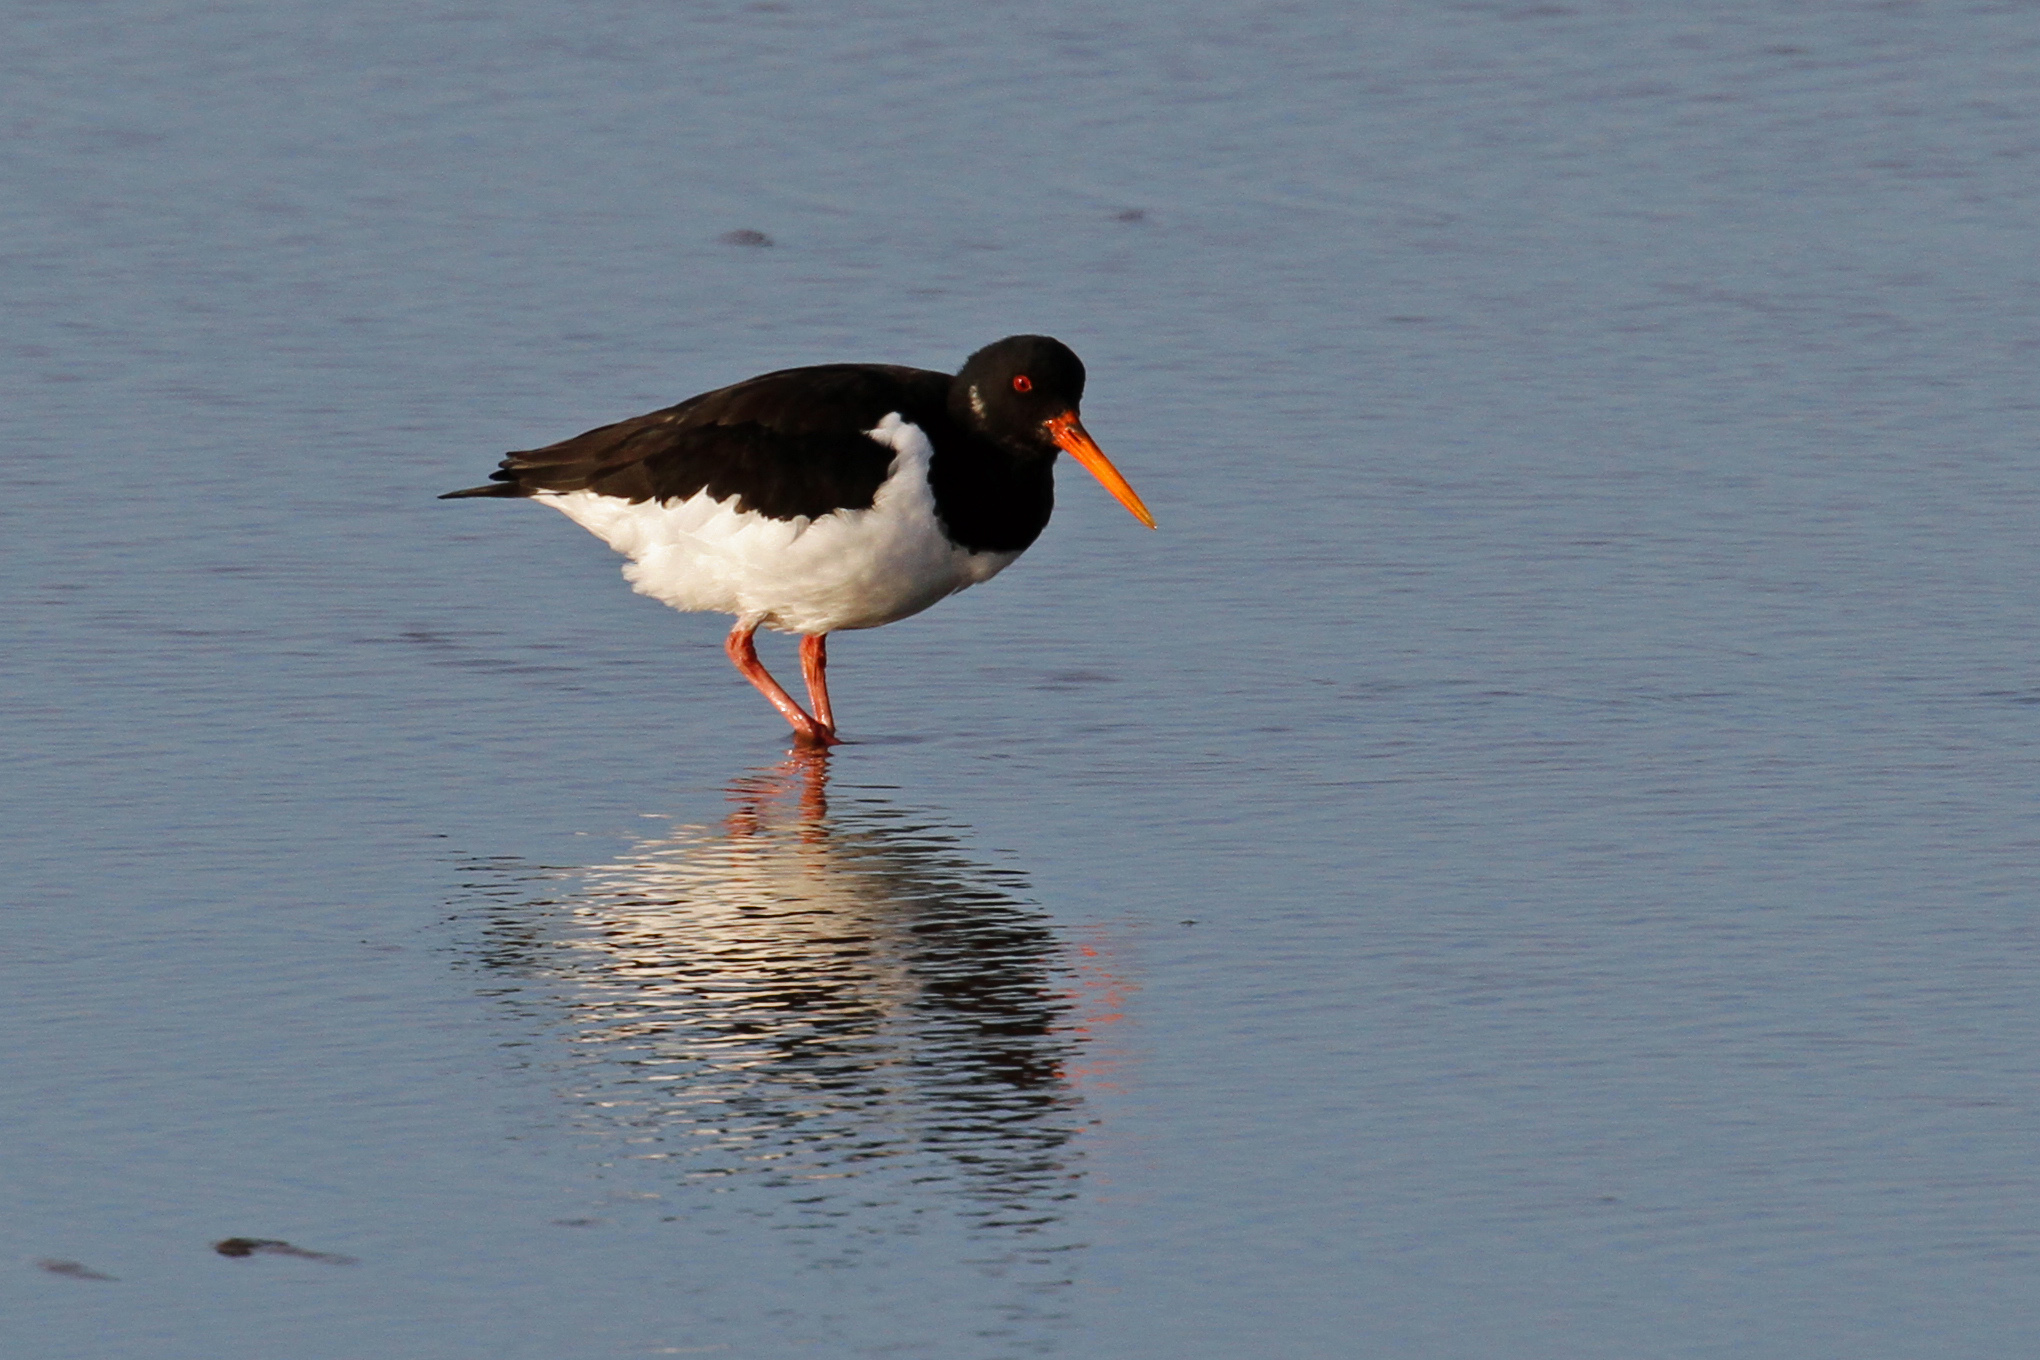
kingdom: Animalia
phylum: Chordata
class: Aves
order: Charadriiformes
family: Haematopodidae
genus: Haematopus
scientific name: Haematopus ostralegus
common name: Eurasian oystercatcher
